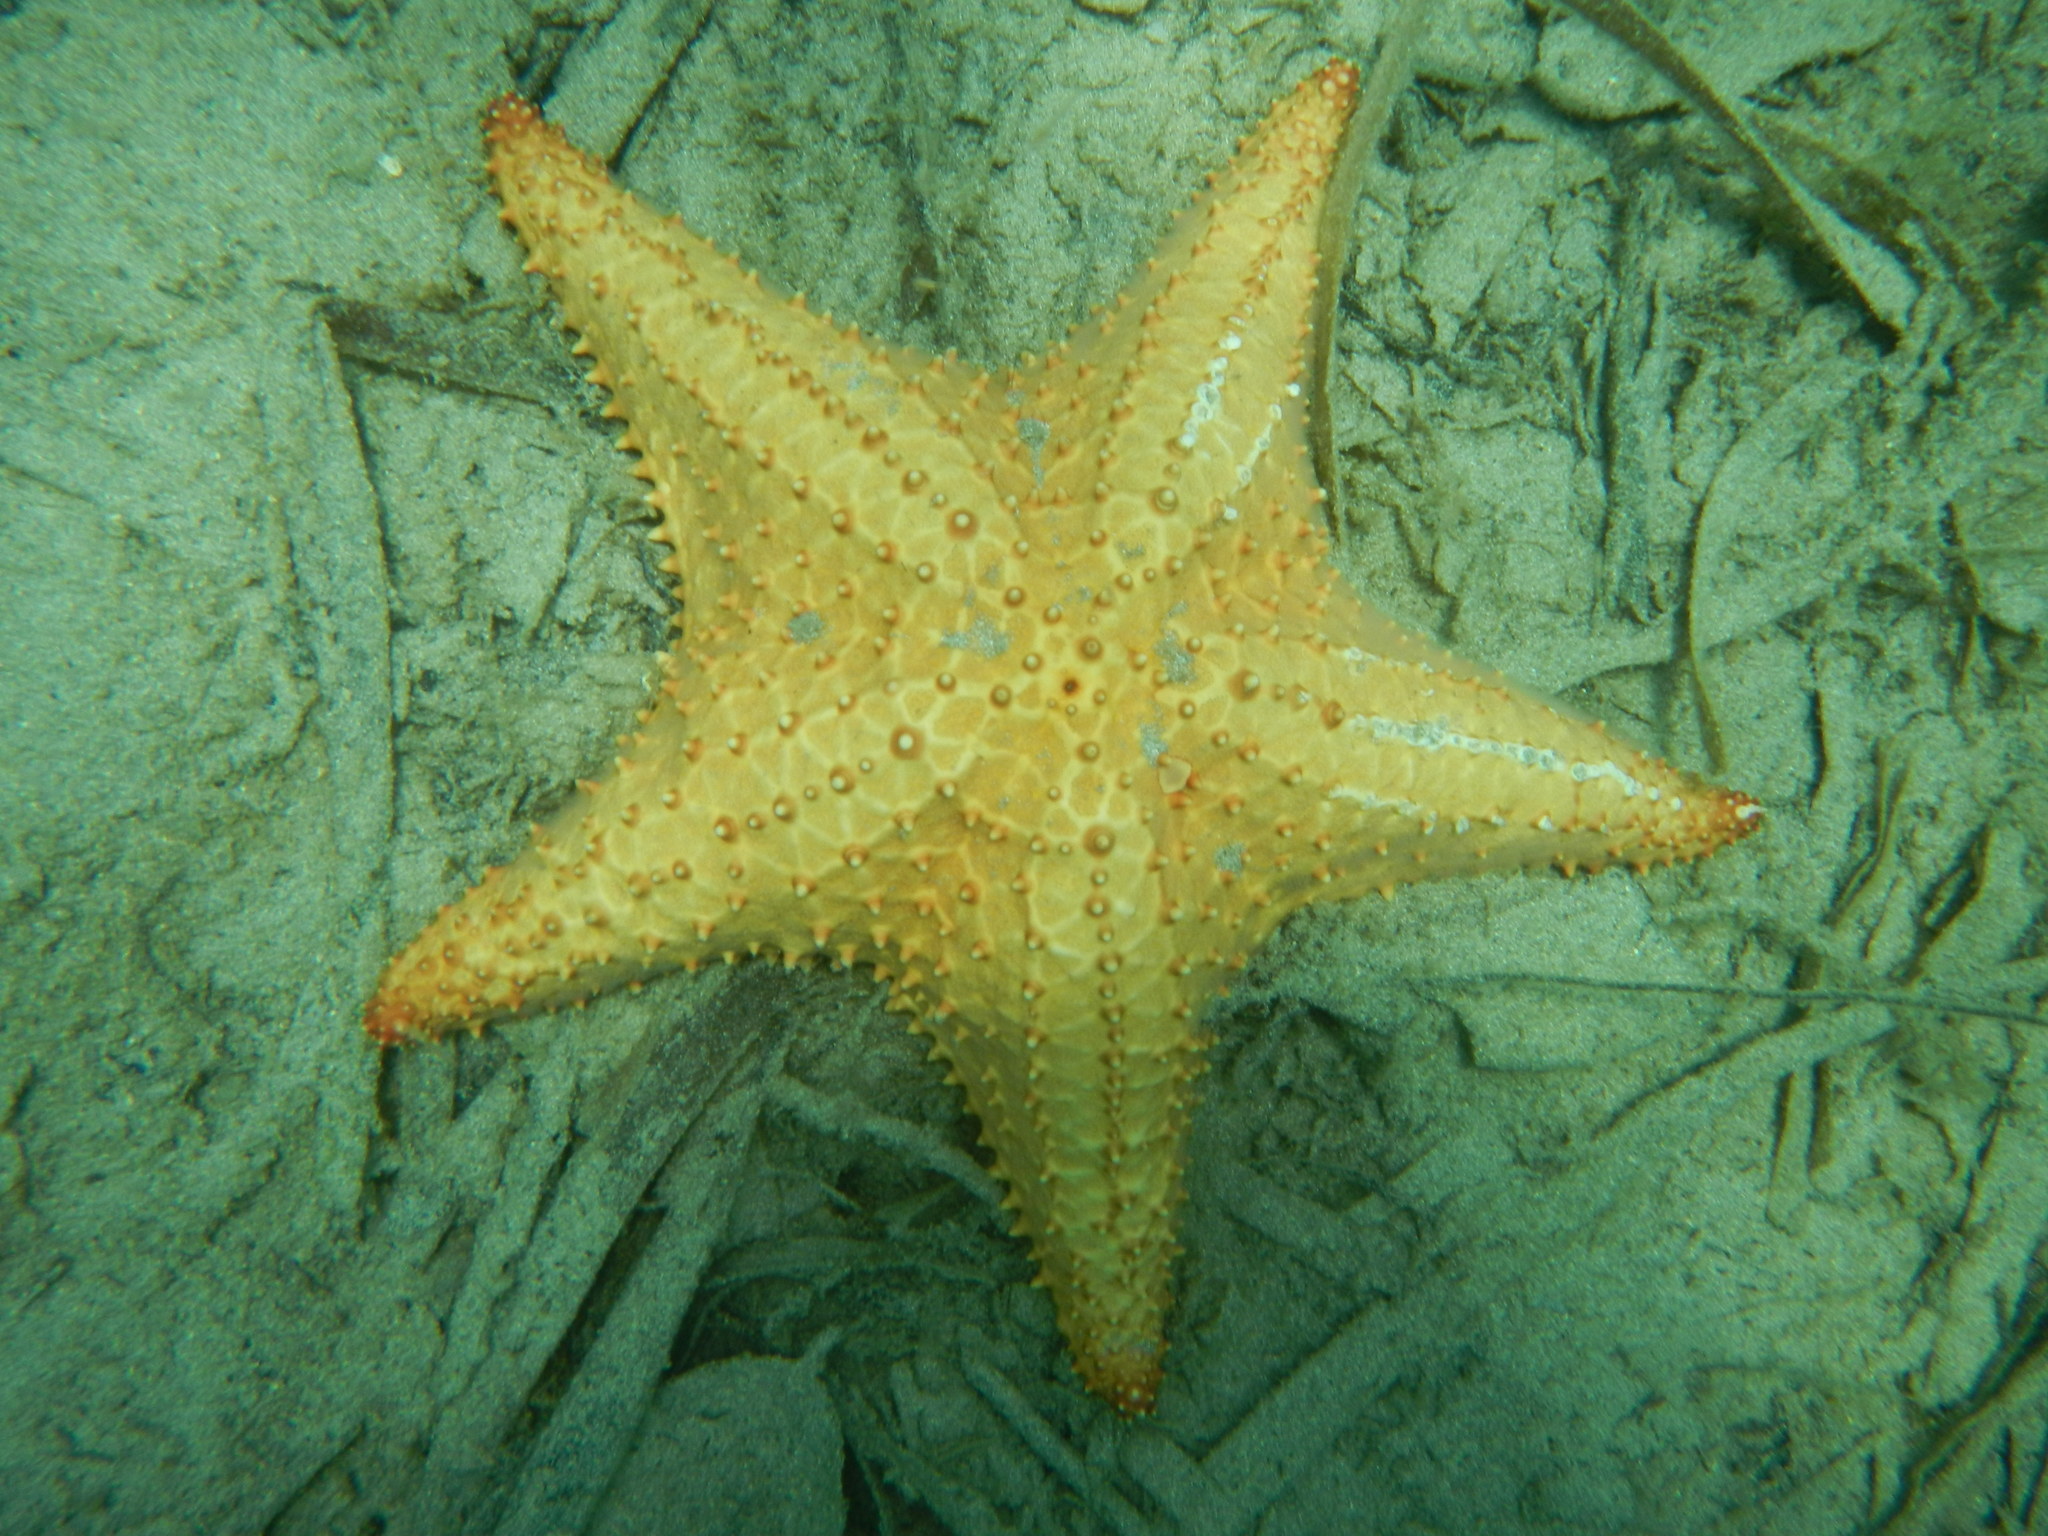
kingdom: Animalia
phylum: Echinodermata
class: Asteroidea
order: Valvatida
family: Oreasteridae
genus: Oreaster
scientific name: Oreaster reticulatus
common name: Cushion sea star
